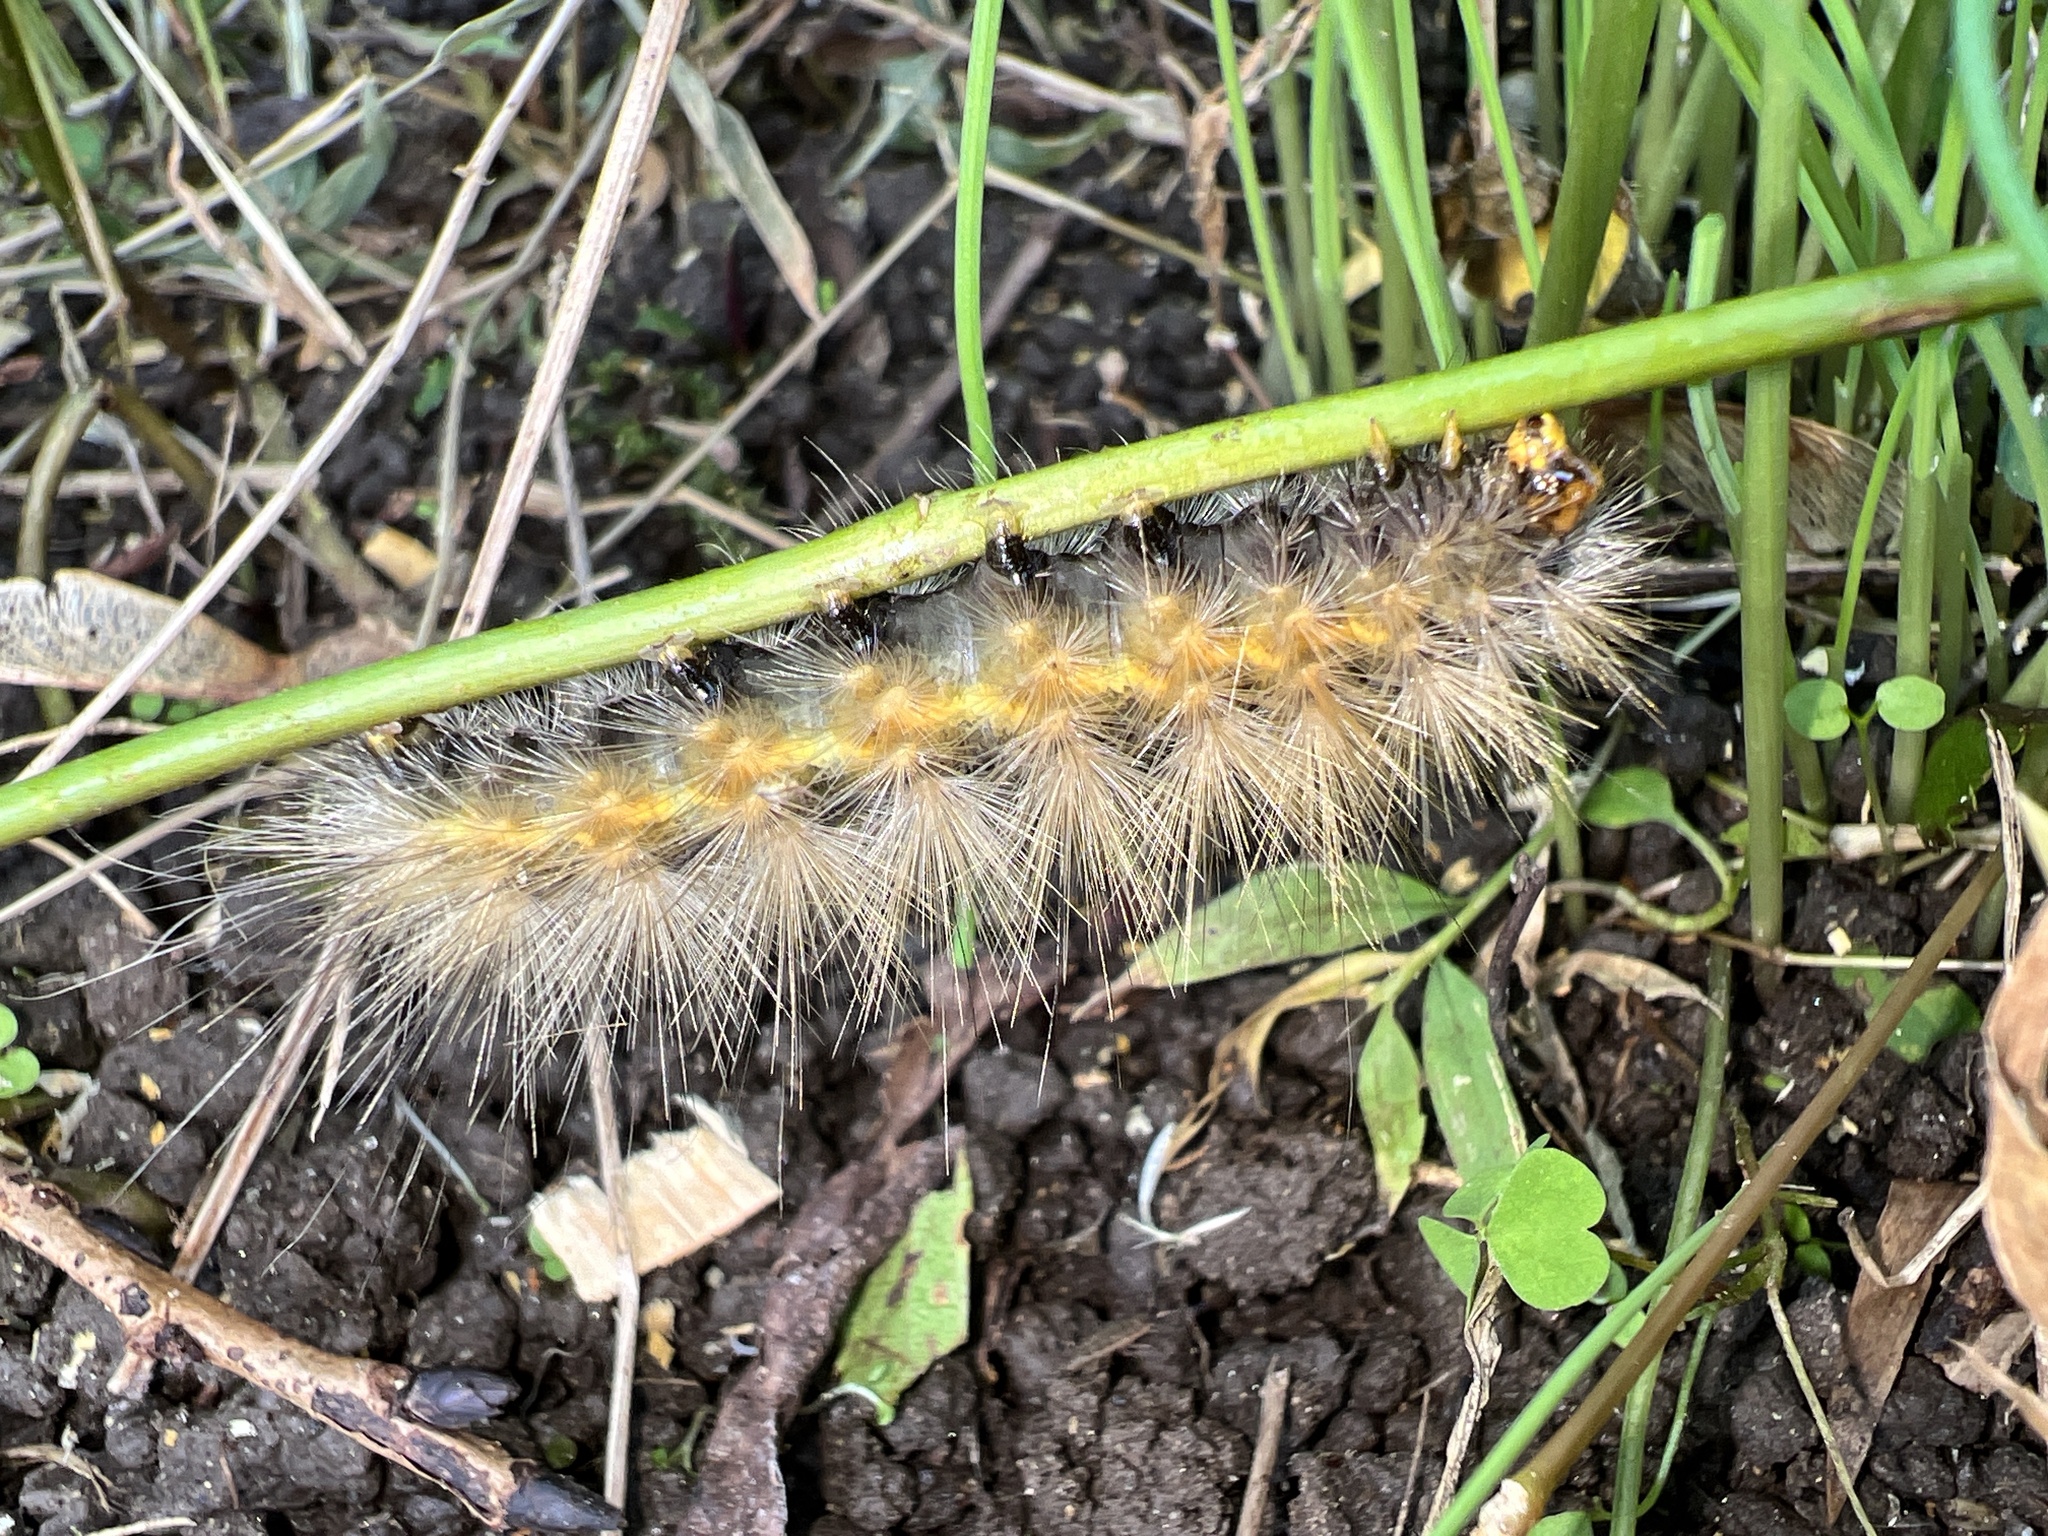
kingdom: Animalia
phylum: Arthropoda
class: Insecta
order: Lepidoptera
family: Erebidae
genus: Spilosoma
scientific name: Spilosoma virginica
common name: Virginia tiger moth
